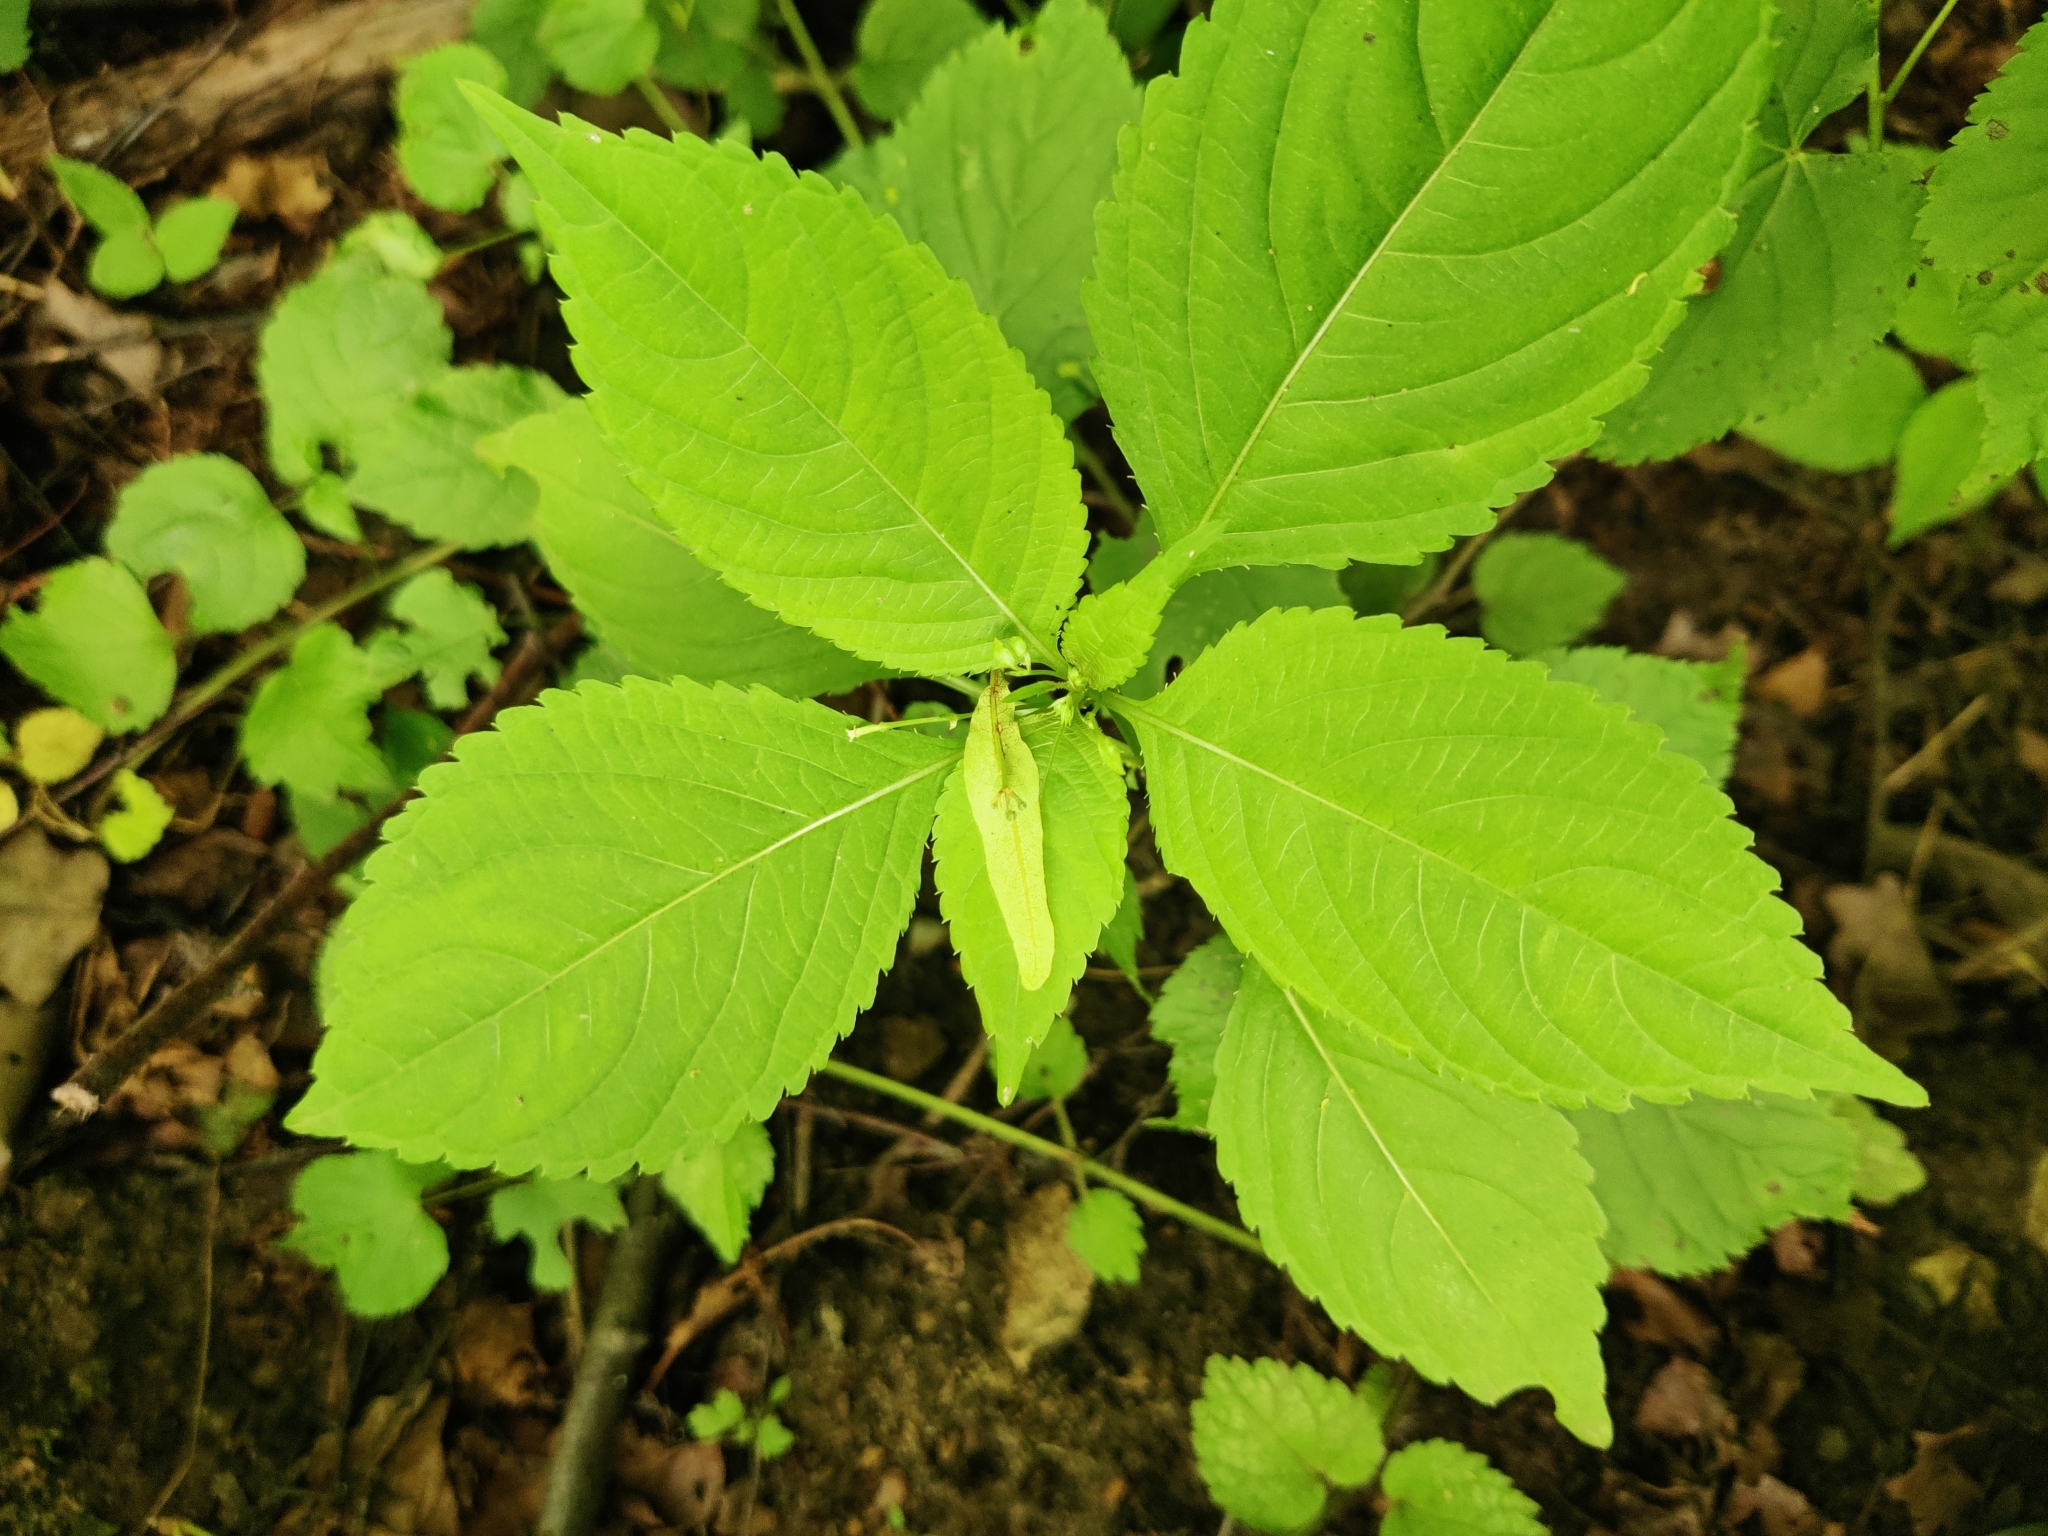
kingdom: Plantae
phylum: Tracheophyta
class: Magnoliopsida
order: Ericales
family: Balsaminaceae
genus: Impatiens
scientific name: Impatiens parviflora
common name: Small balsam
